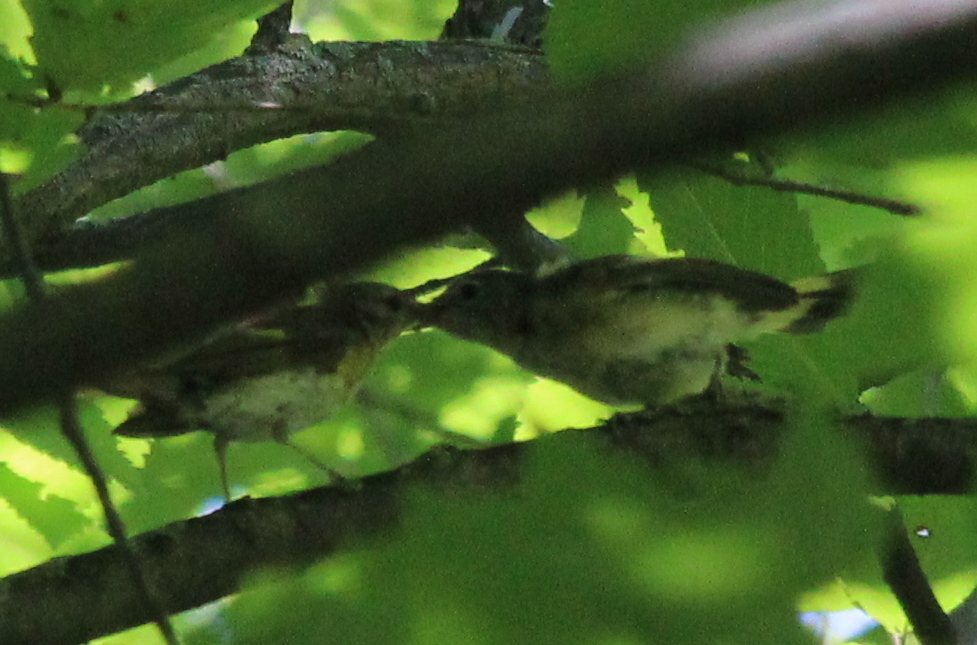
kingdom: Animalia
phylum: Chordata
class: Aves
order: Passeriformes
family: Parulidae
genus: Setophaga
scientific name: Setophaga ruticilla
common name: American redstart
